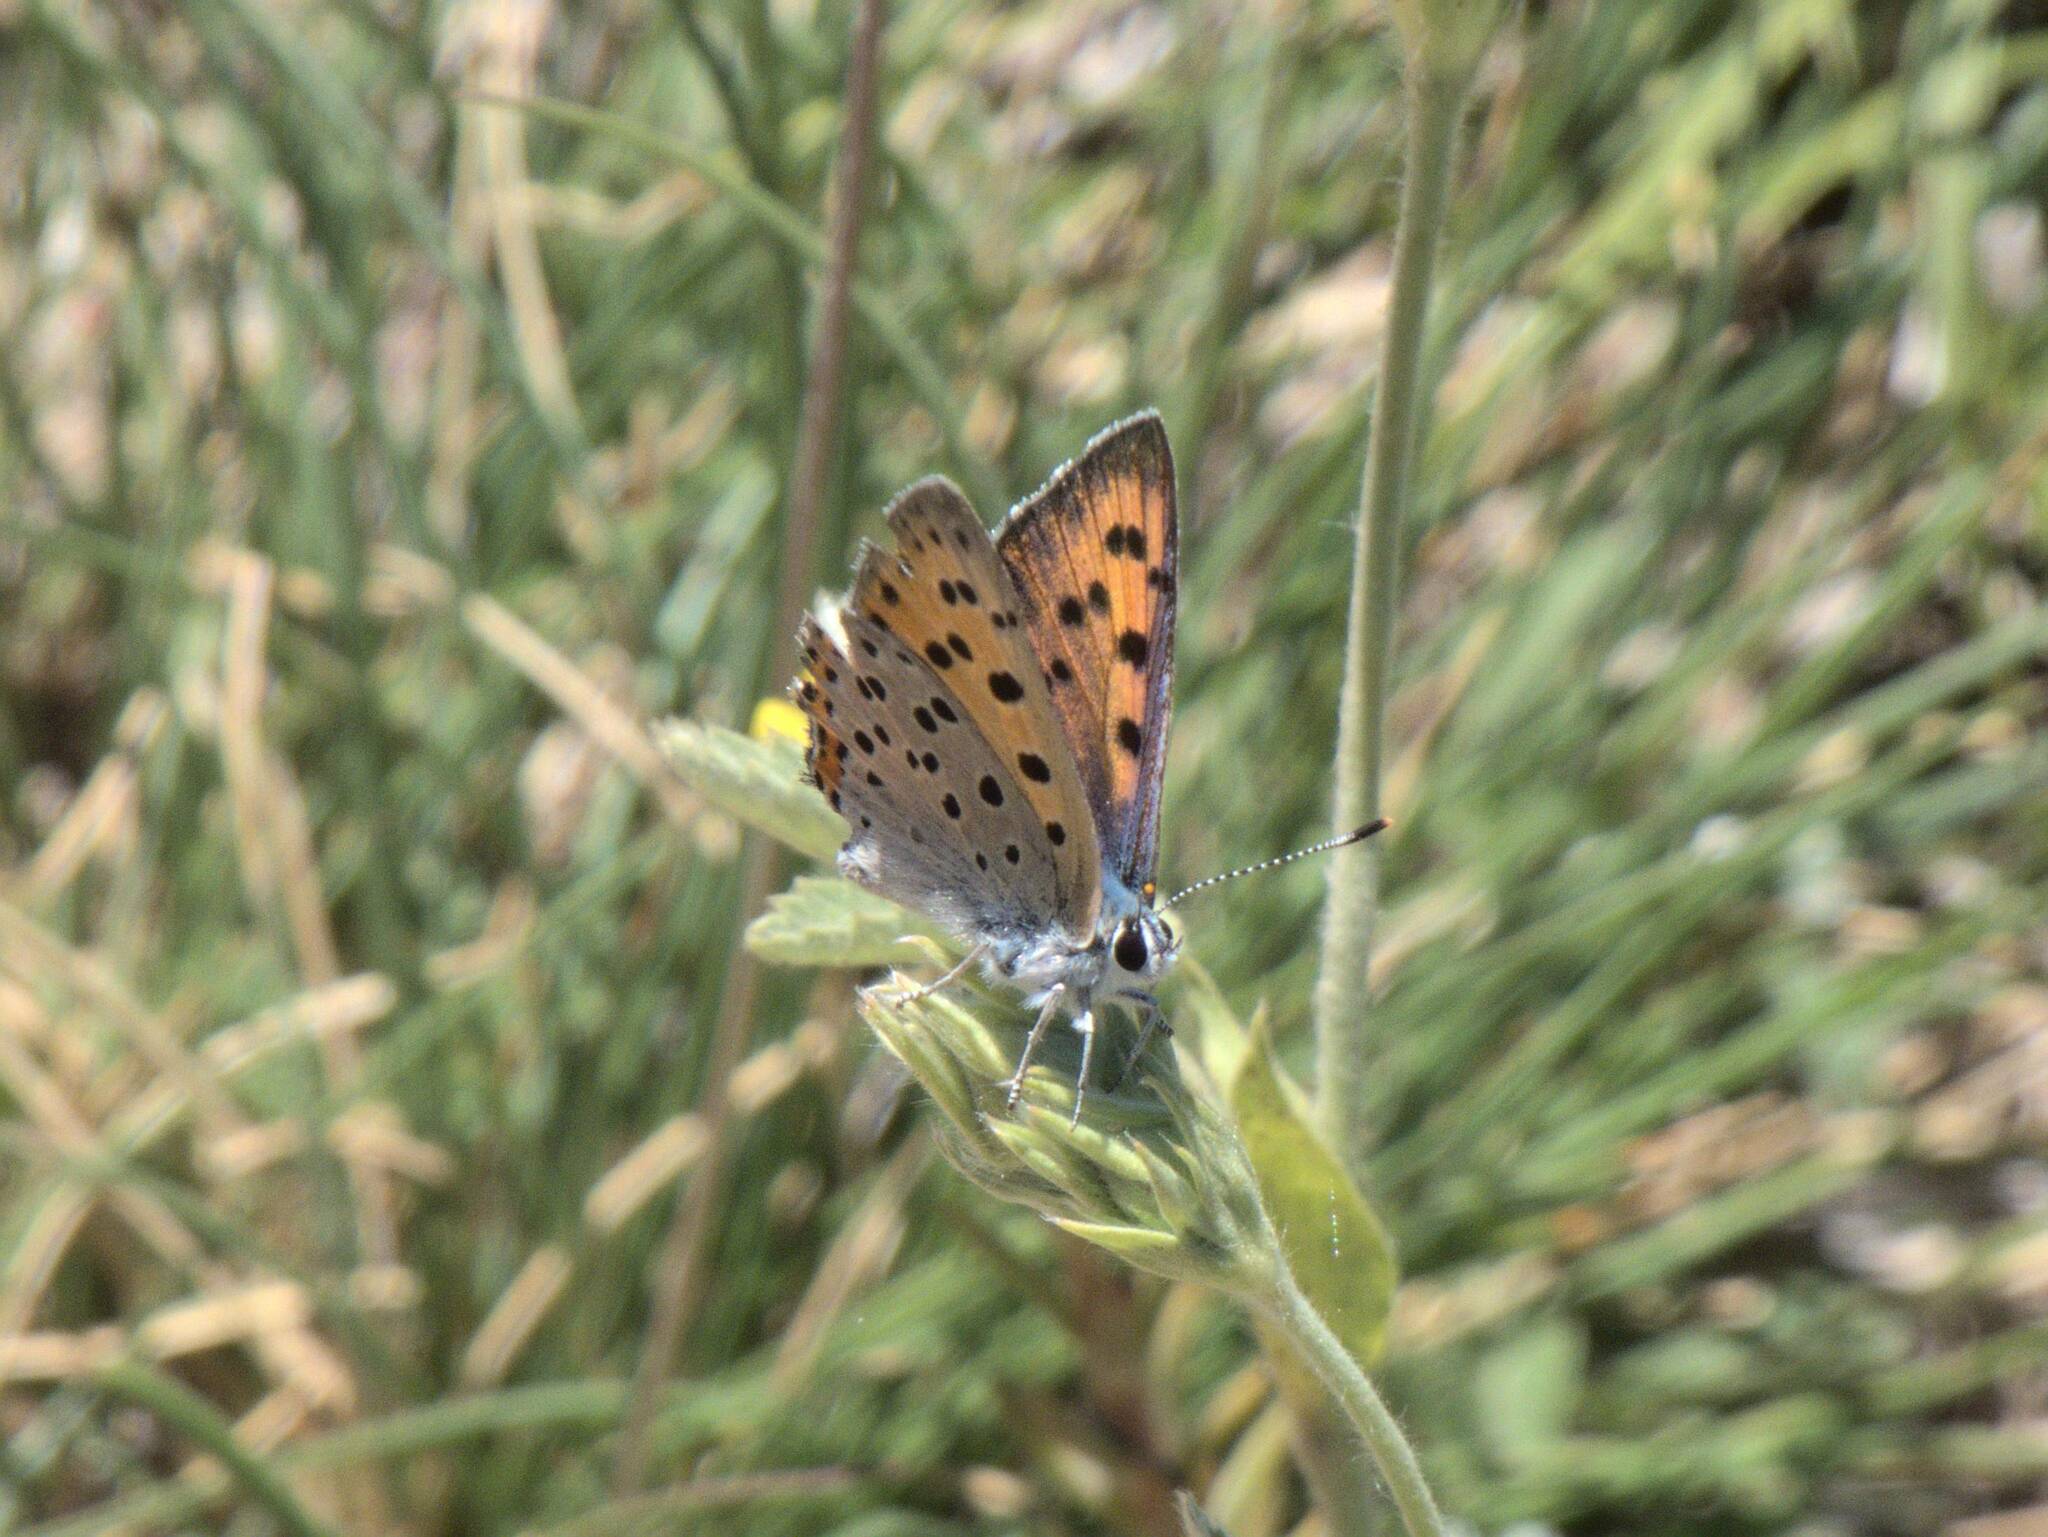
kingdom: Animalia
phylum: Arthropoda
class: Insecta
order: Lepidoptera
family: Lycaenidae
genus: Lycaena
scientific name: Lycaena alciphron
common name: Purple-shot copper
